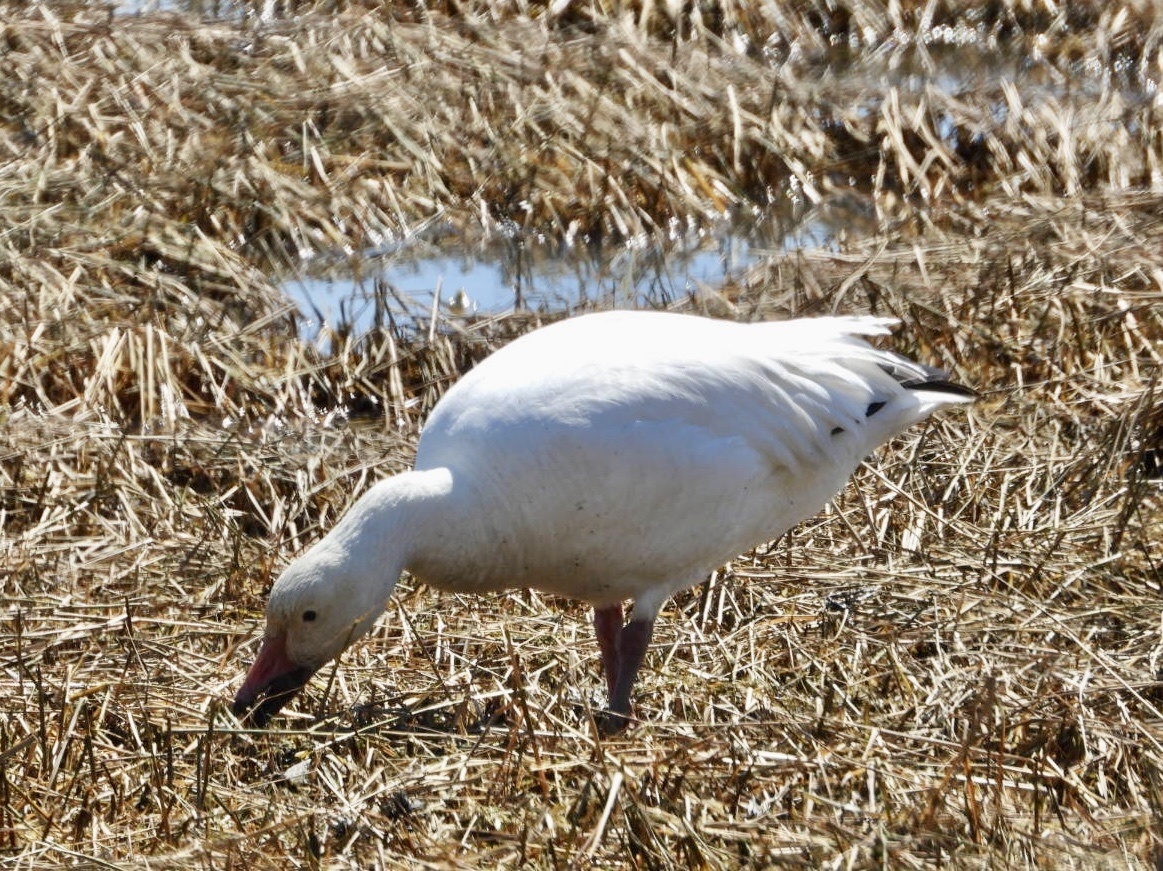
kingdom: Animalia
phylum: Chordata
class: Aves
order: Anseriformes
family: Anatidae
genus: Anser
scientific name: Anser caerulescens
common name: Snow goose
